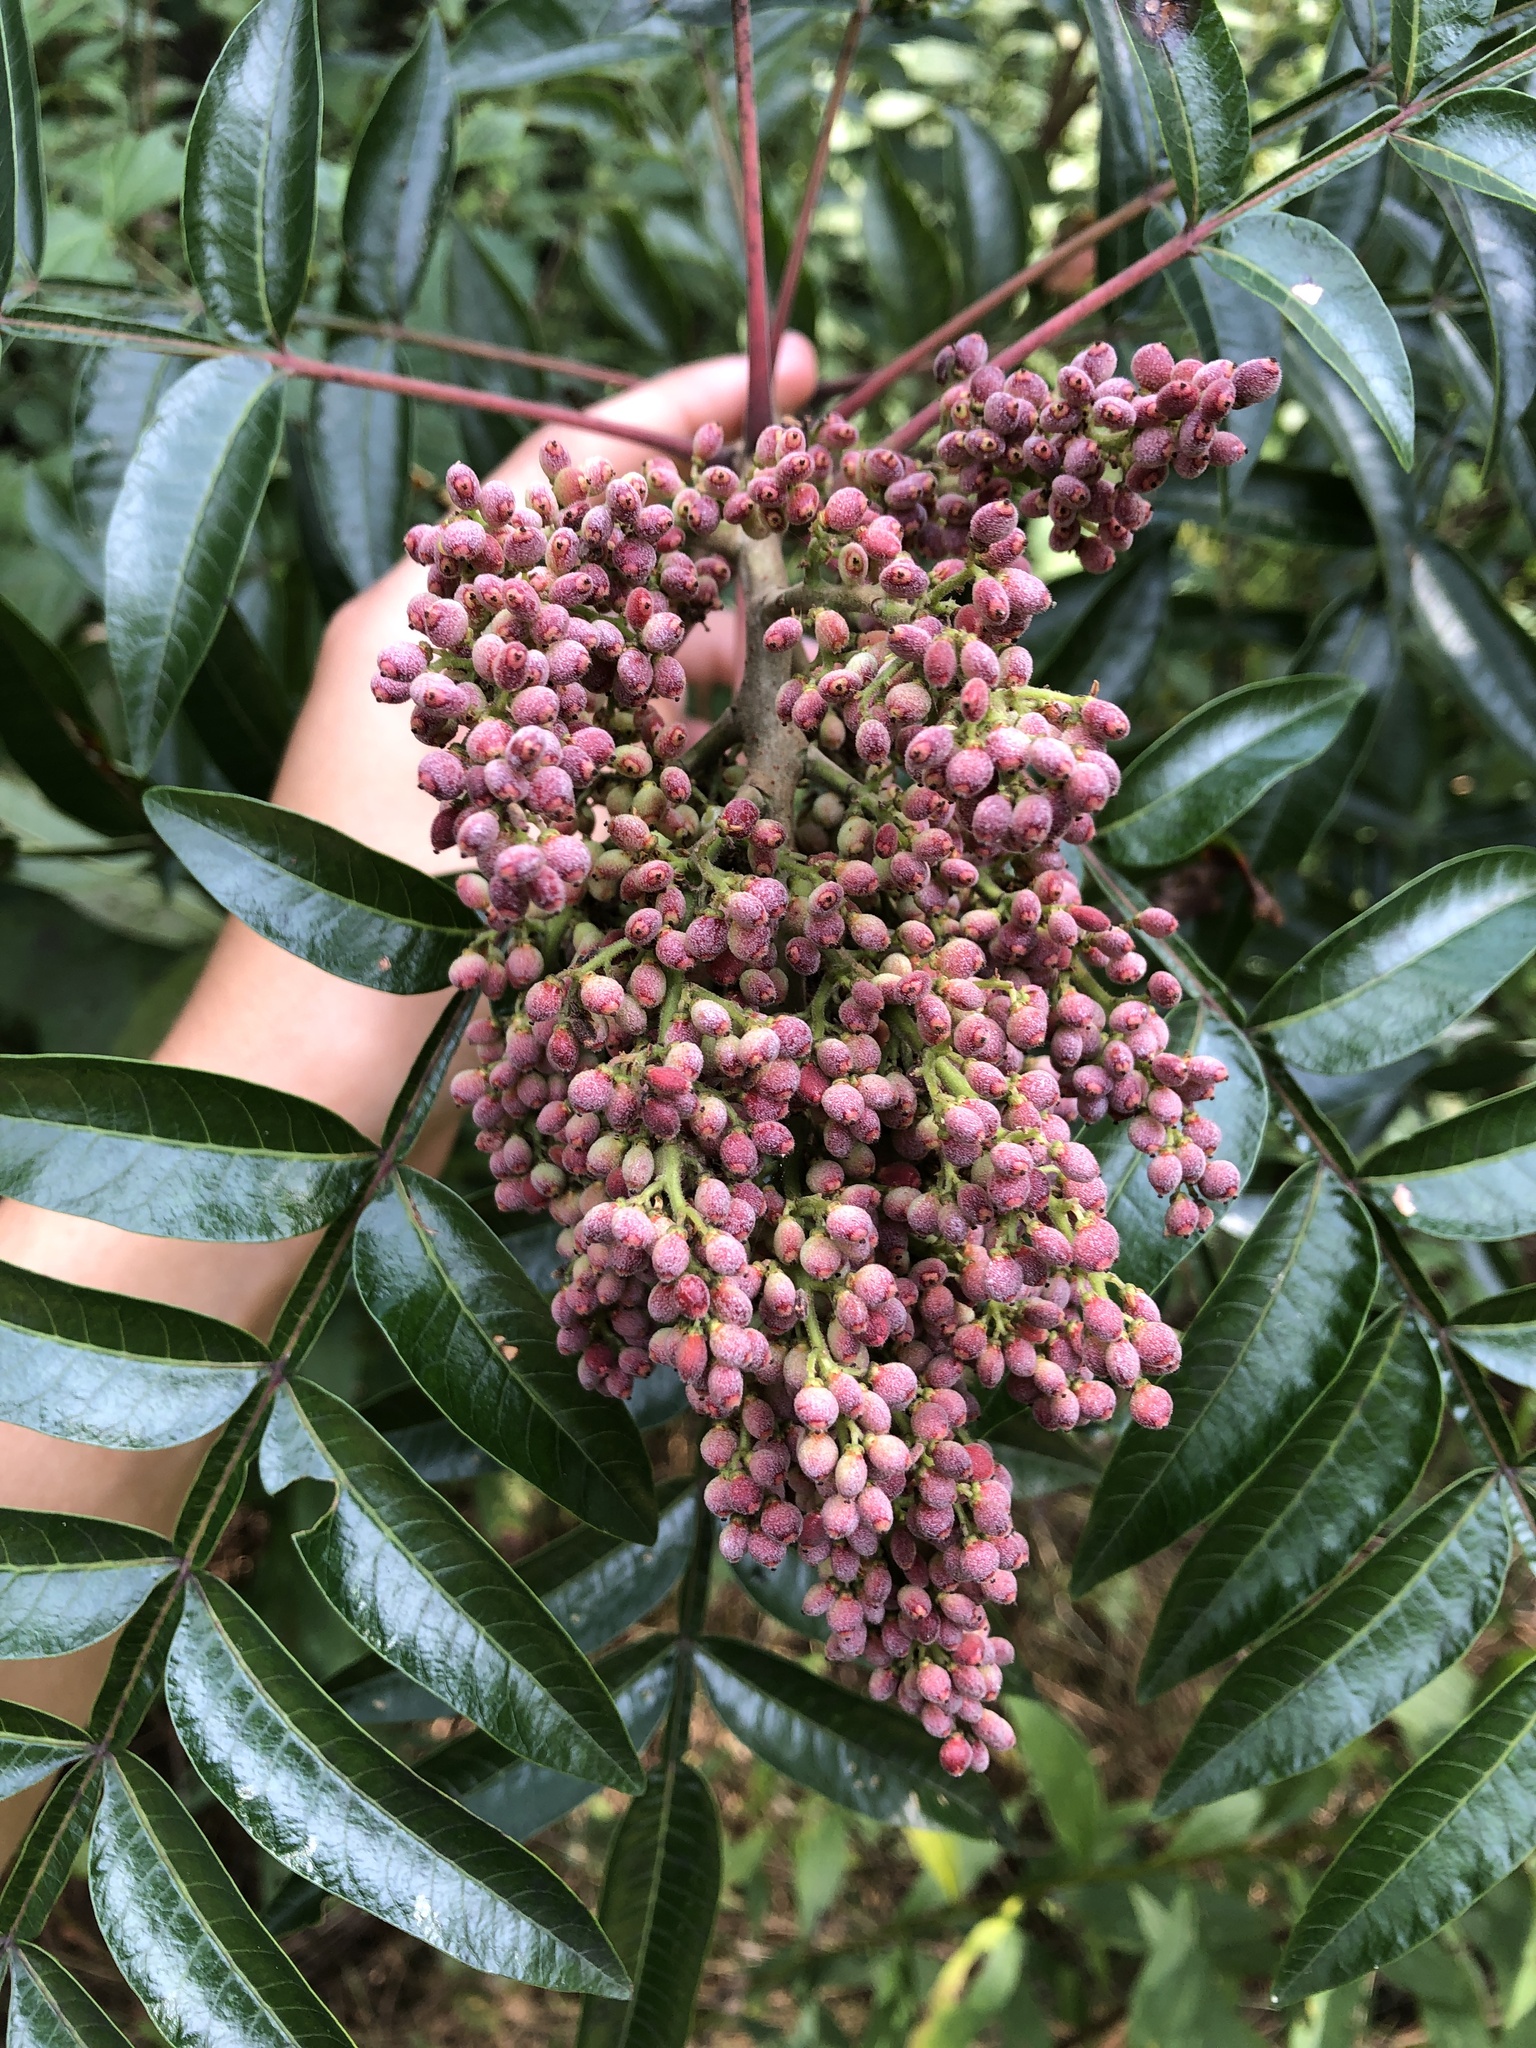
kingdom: Plantae
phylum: Tracheophyta
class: Magnoliopsida
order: Sapindales
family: Anacardiaceae
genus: Rhus
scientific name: Rhus copallina
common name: Shining sumac
